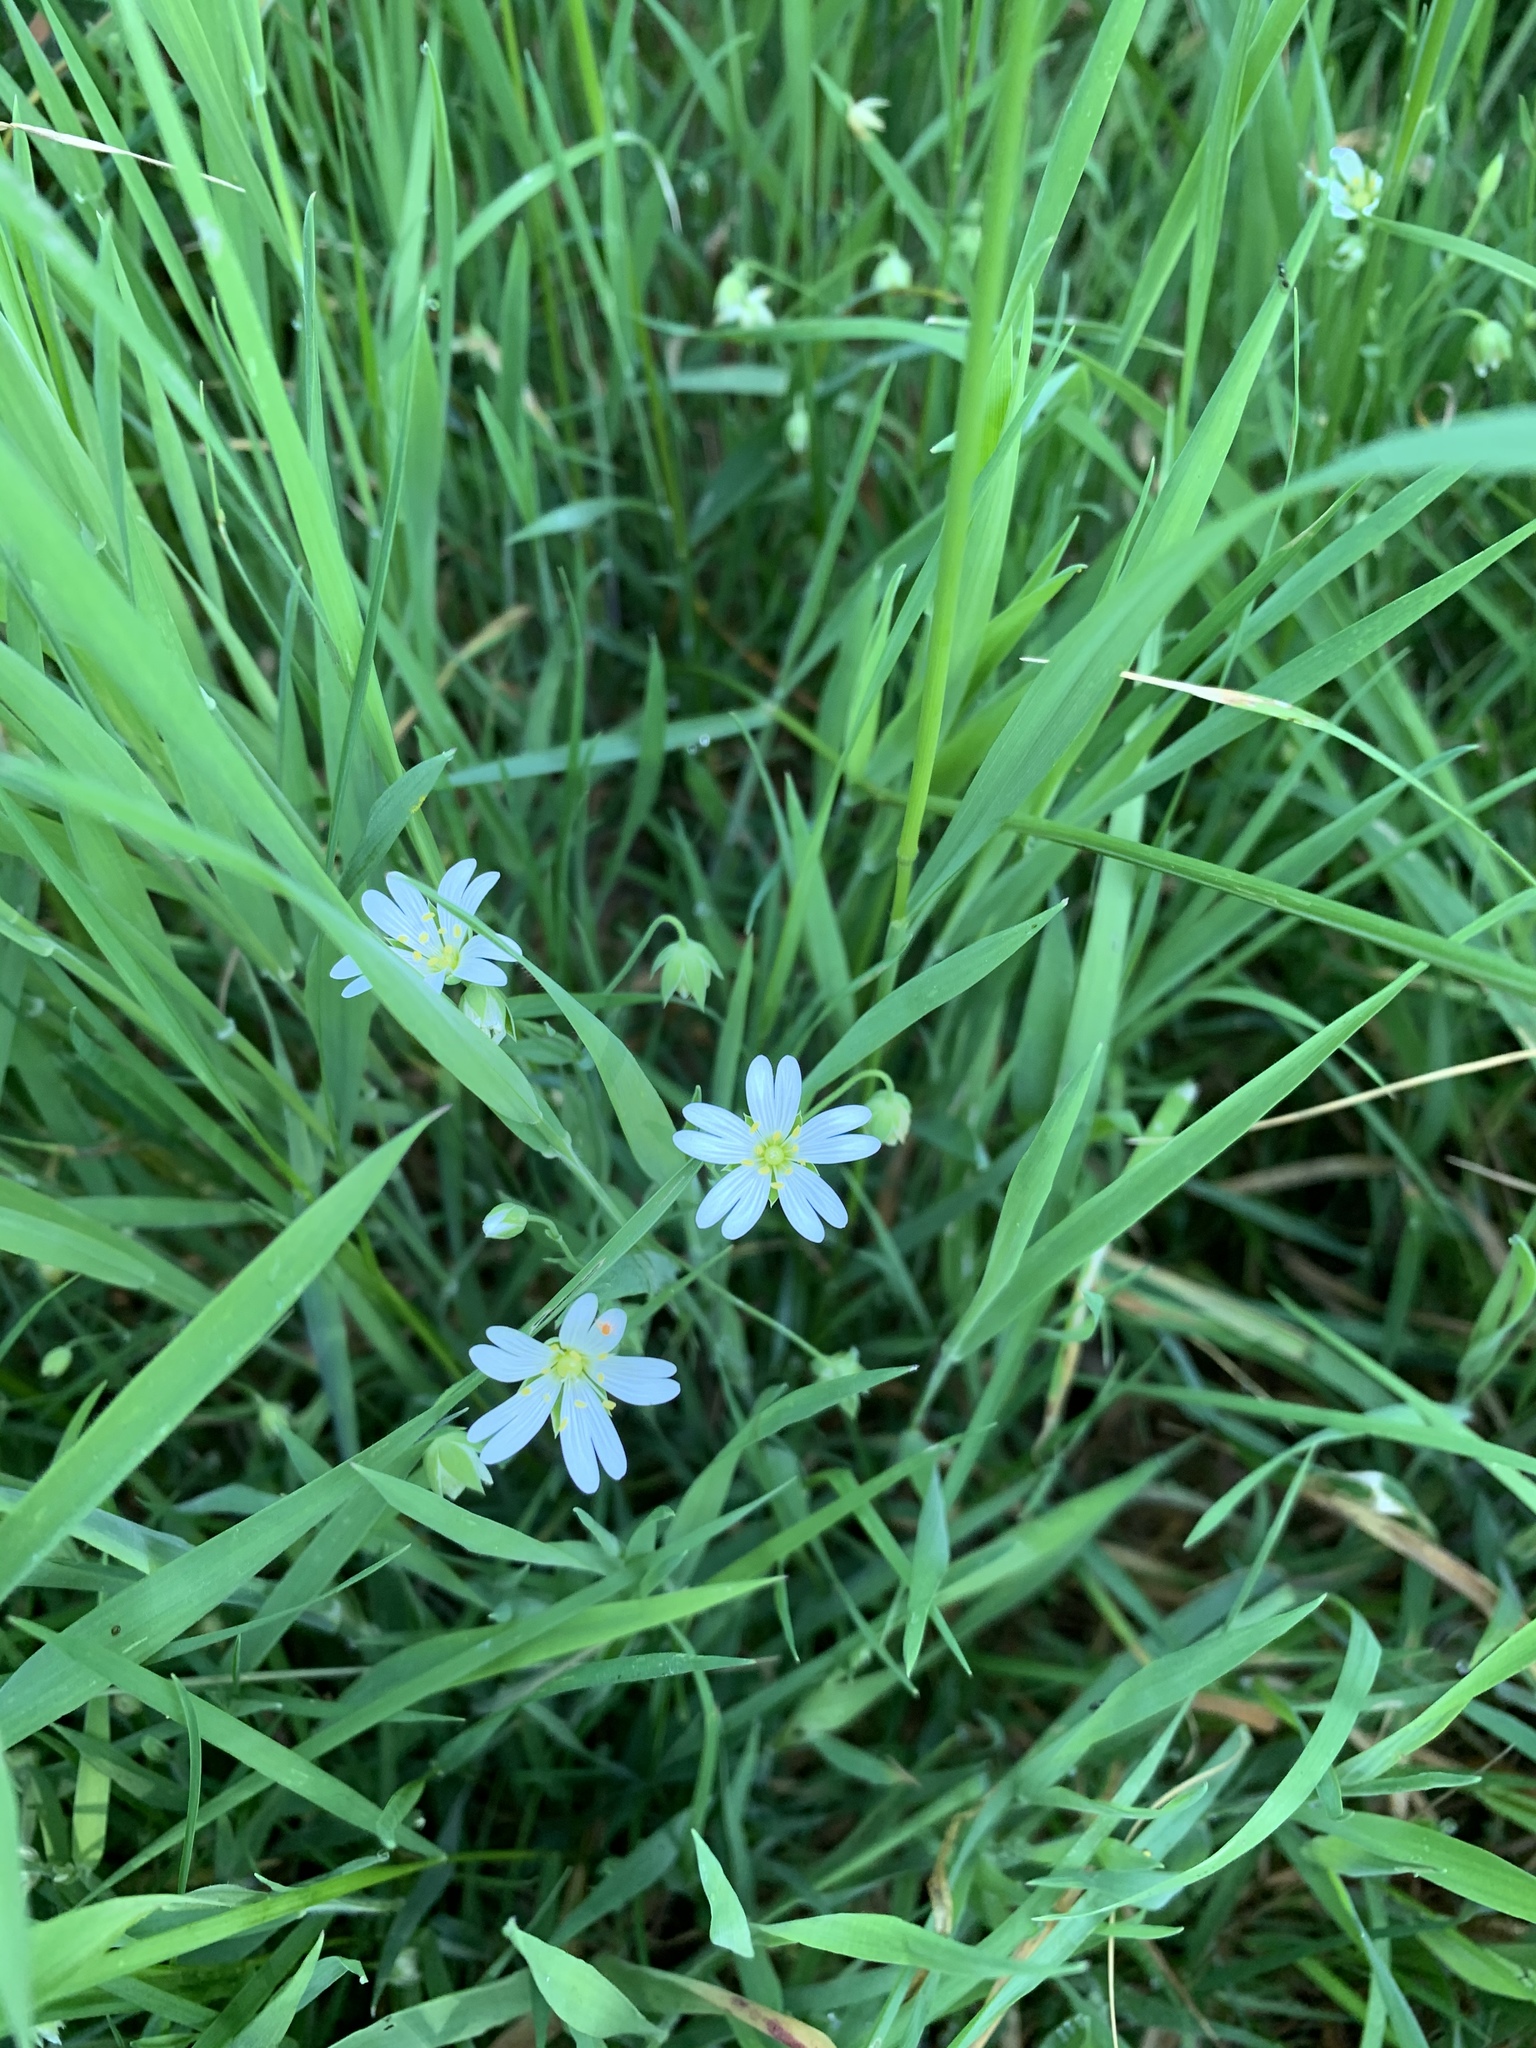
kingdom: Plantae
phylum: Tracheophyta
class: Magnoliopsida
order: Caryophyllales
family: Caryophyllaceae
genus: Rabelera
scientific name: Rabelera holostea
